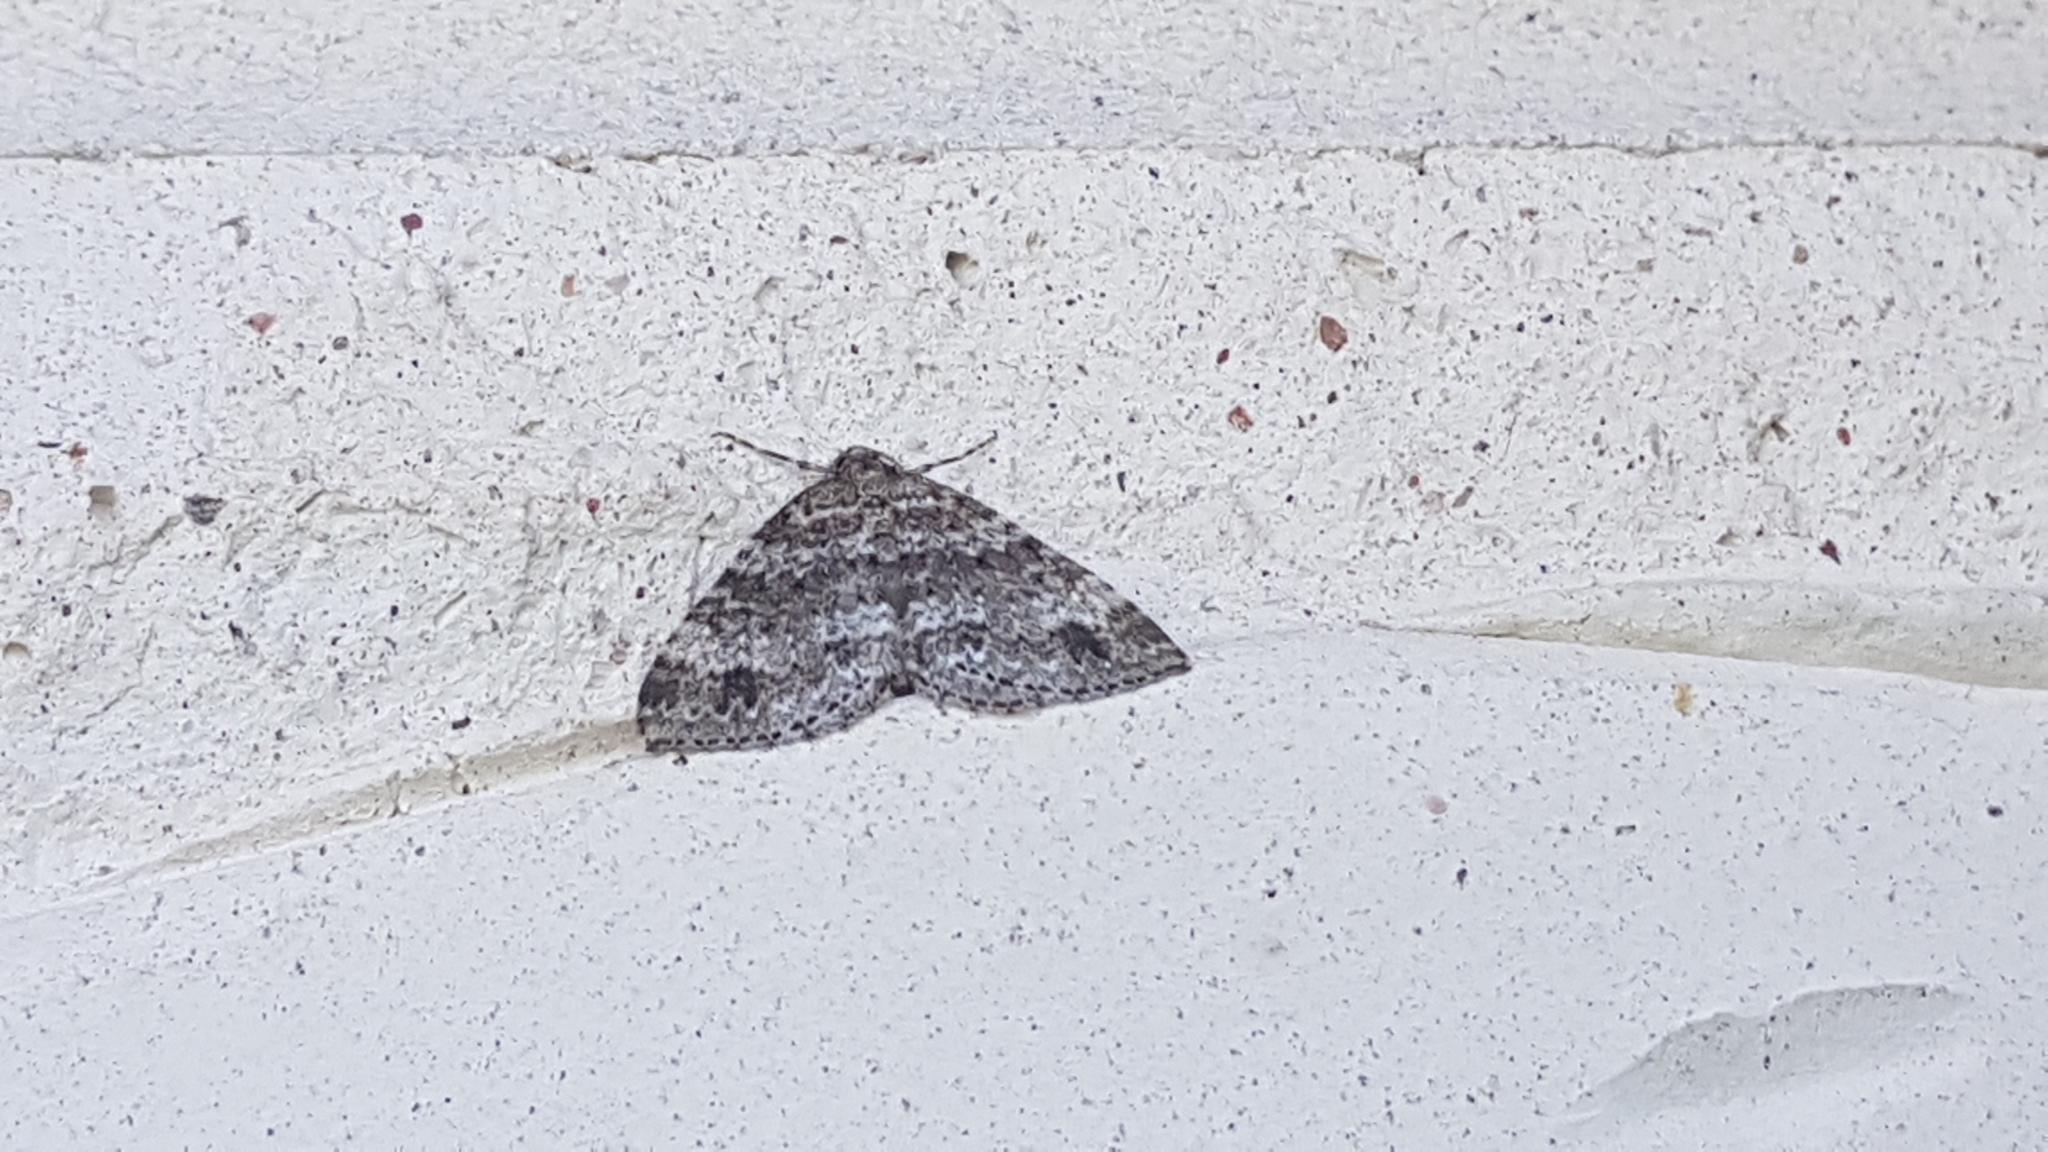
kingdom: Animalia
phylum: Arthropoda
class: Insecta
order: Lepidoptera
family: Geometridae
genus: Perizoma
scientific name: Perizoma didymata
